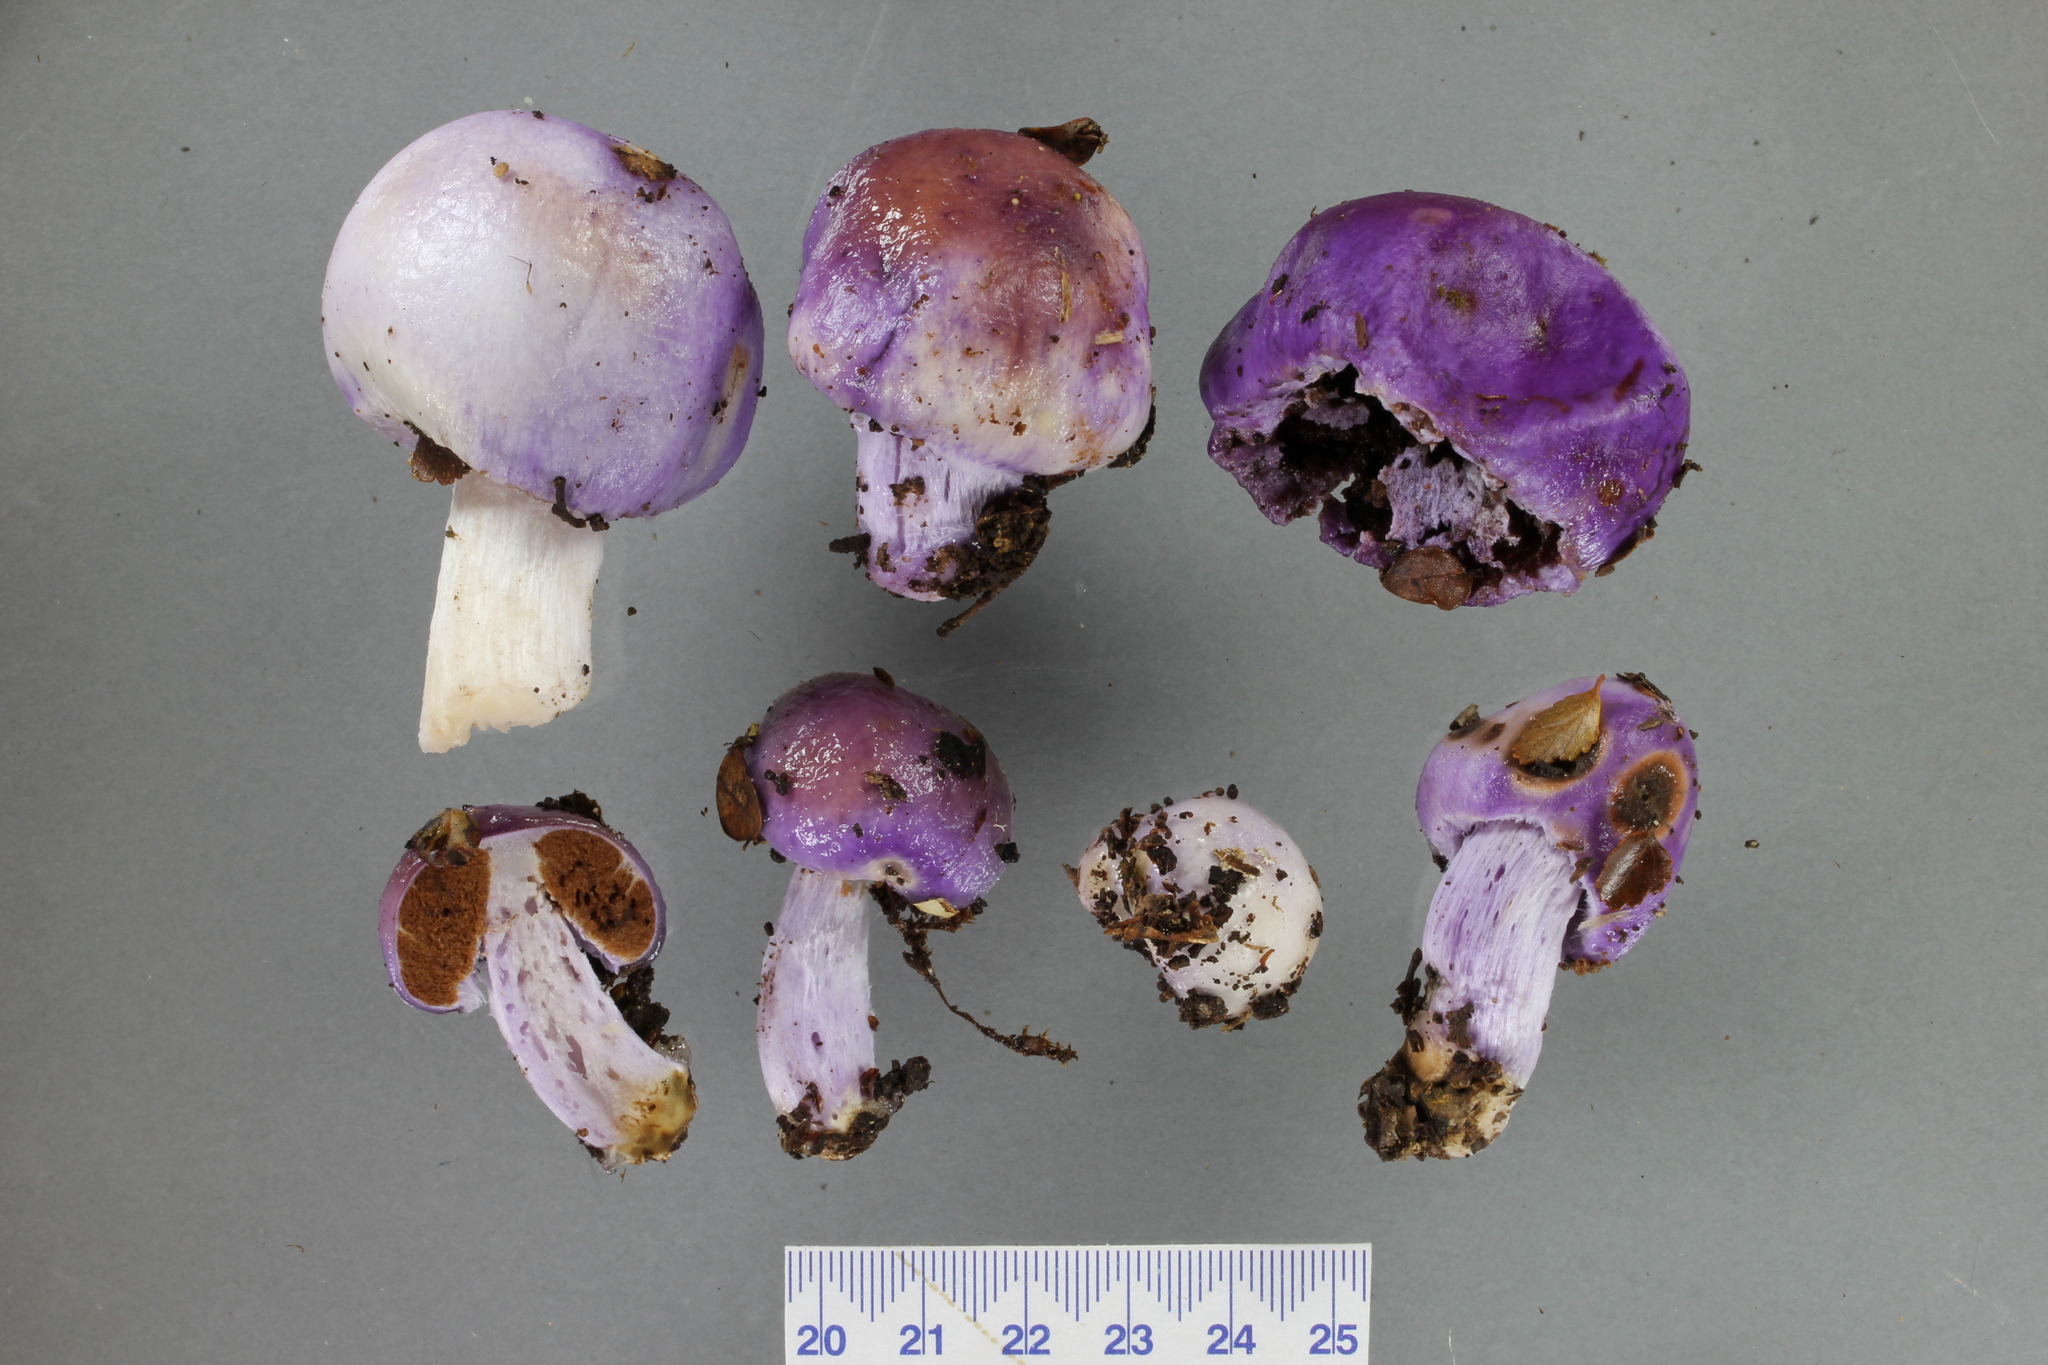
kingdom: Fungi
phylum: Basidiomycota
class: Agaricomycetes
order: Agaricales
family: Cortinariaceae
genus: Cortinarius
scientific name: Cortinarius violaceovolvatus
